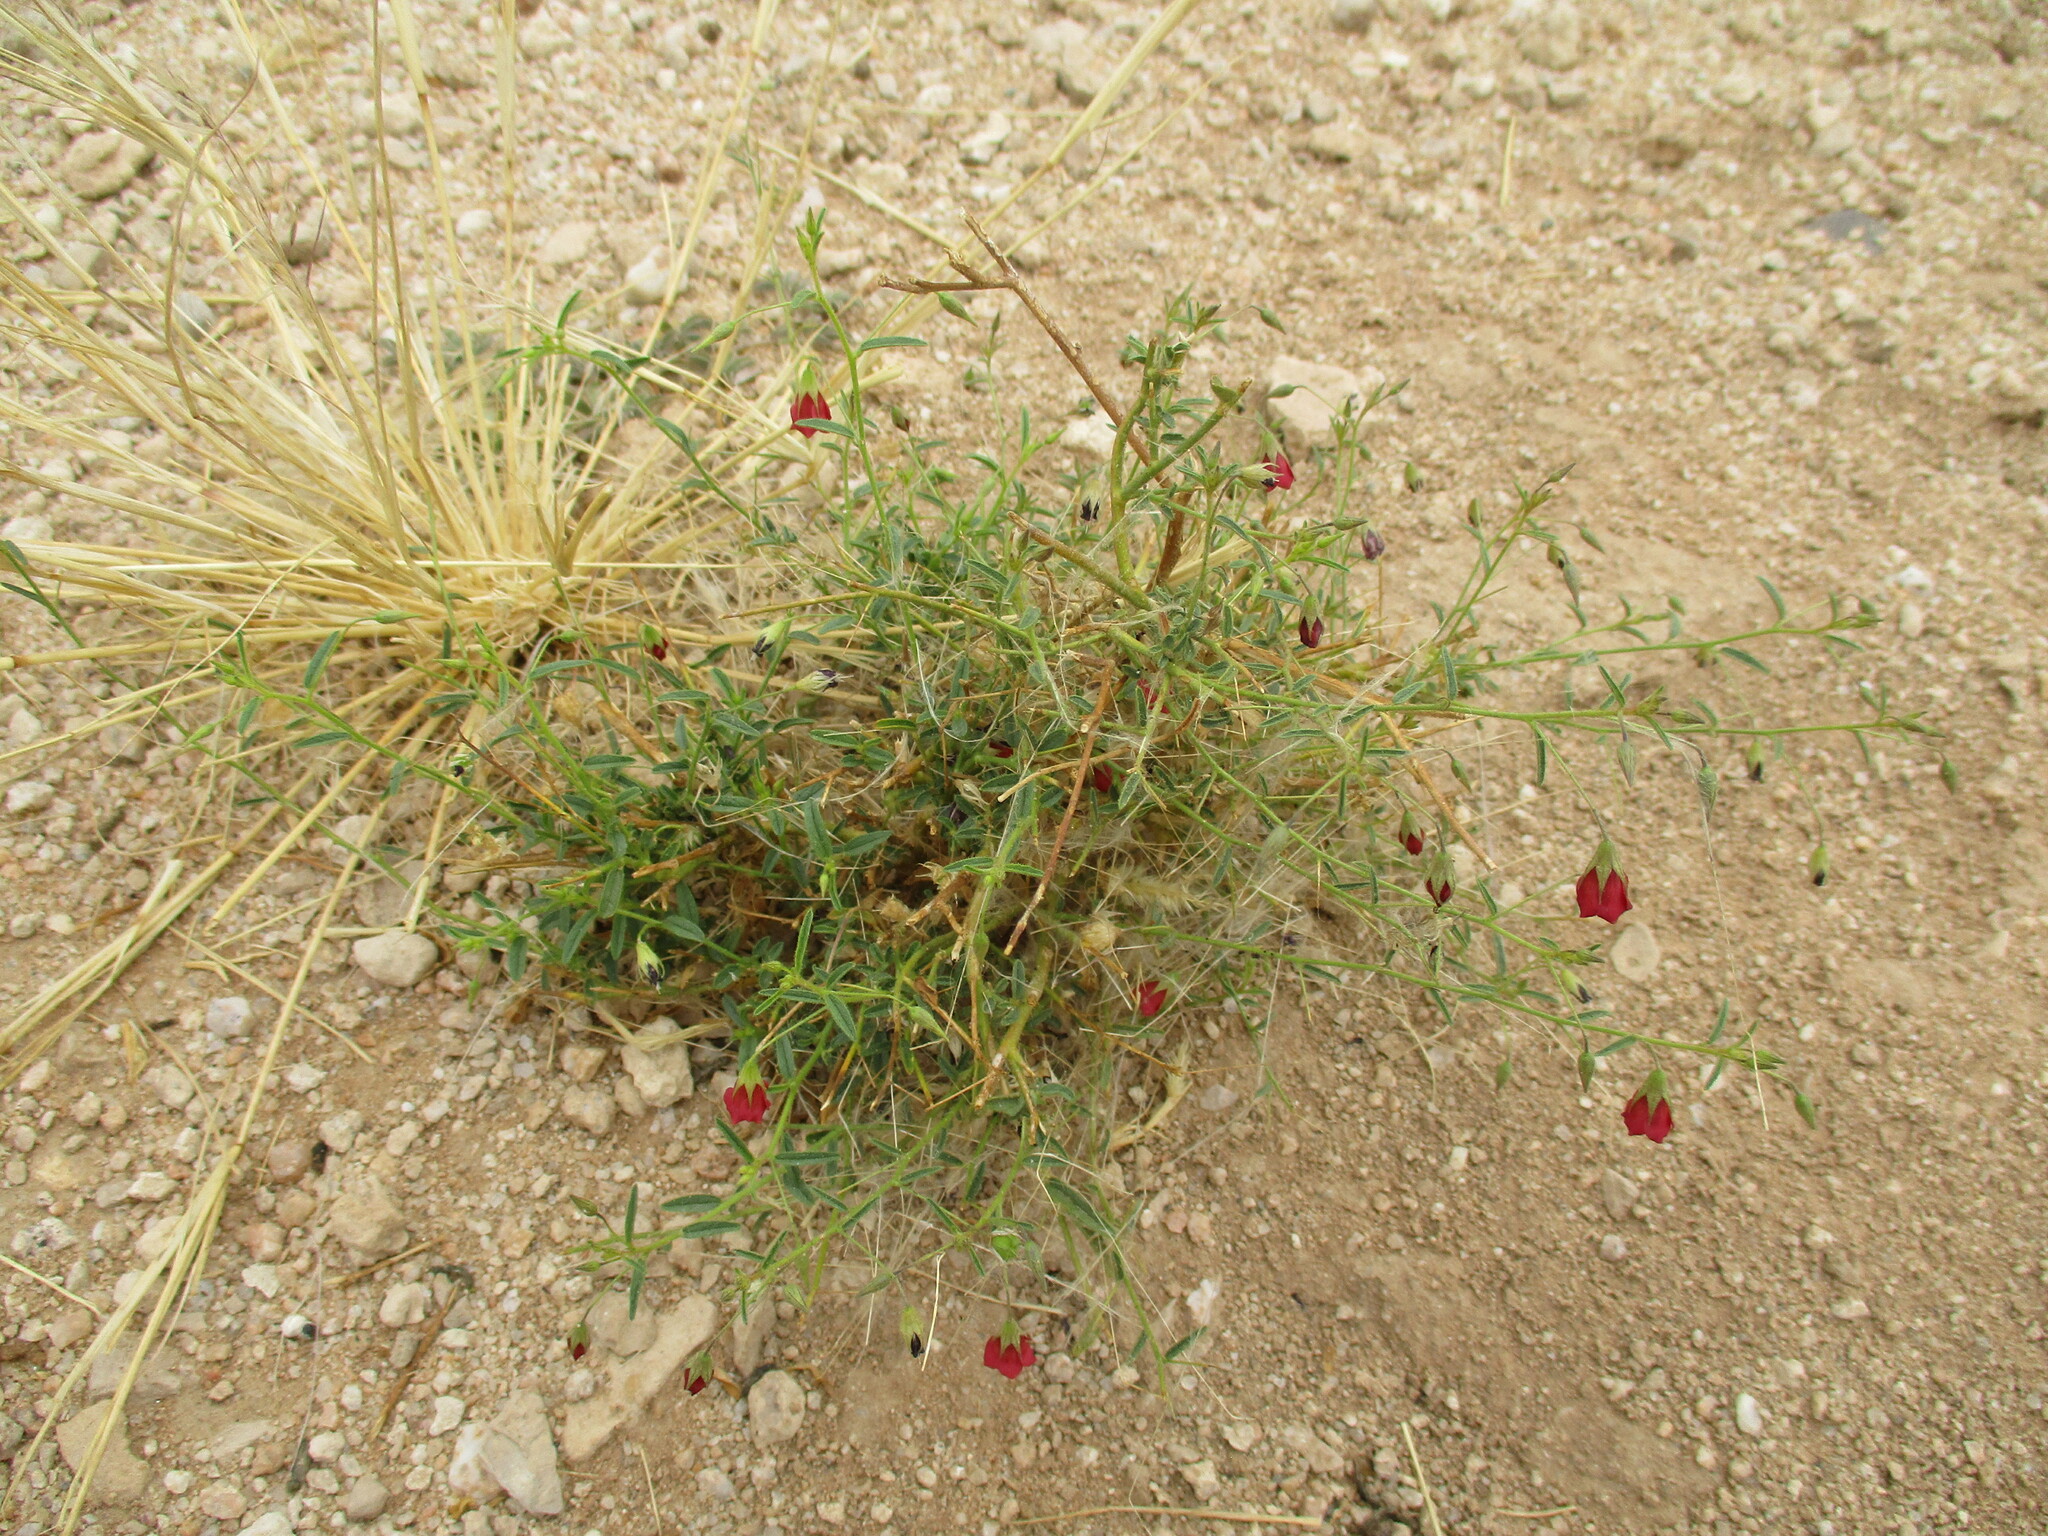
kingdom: Plantae
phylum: Tracheophyta
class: Magnoliopsida
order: Malvales
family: Malvaceae
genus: Hermannia
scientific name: Hermannia modesta
